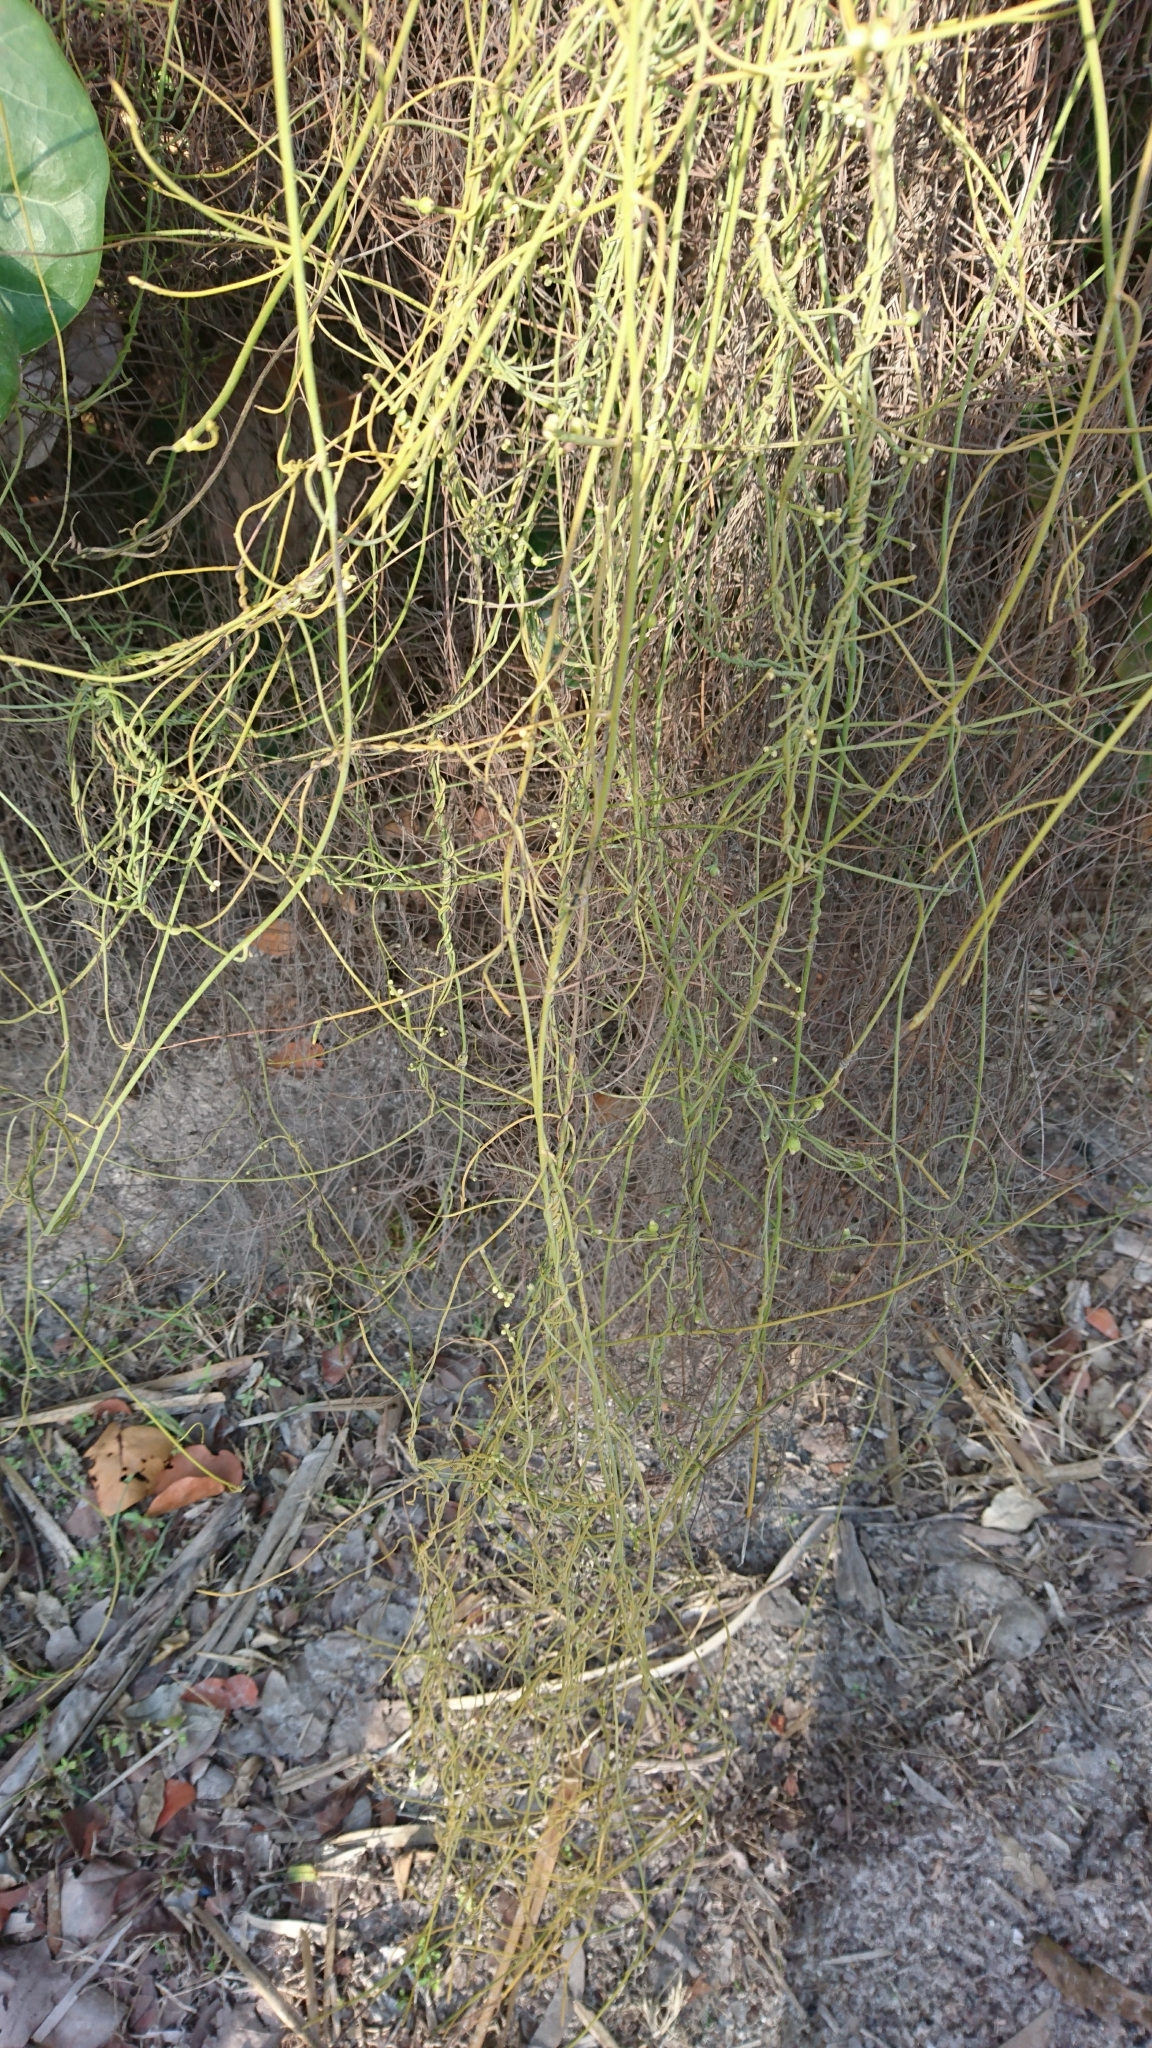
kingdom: Plantae
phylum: Tracheophyta
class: Magnoliopsida
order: Laurales
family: Lauraceae
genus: Cassytha
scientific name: Cassytha filiformis
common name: Dodder-laurel
